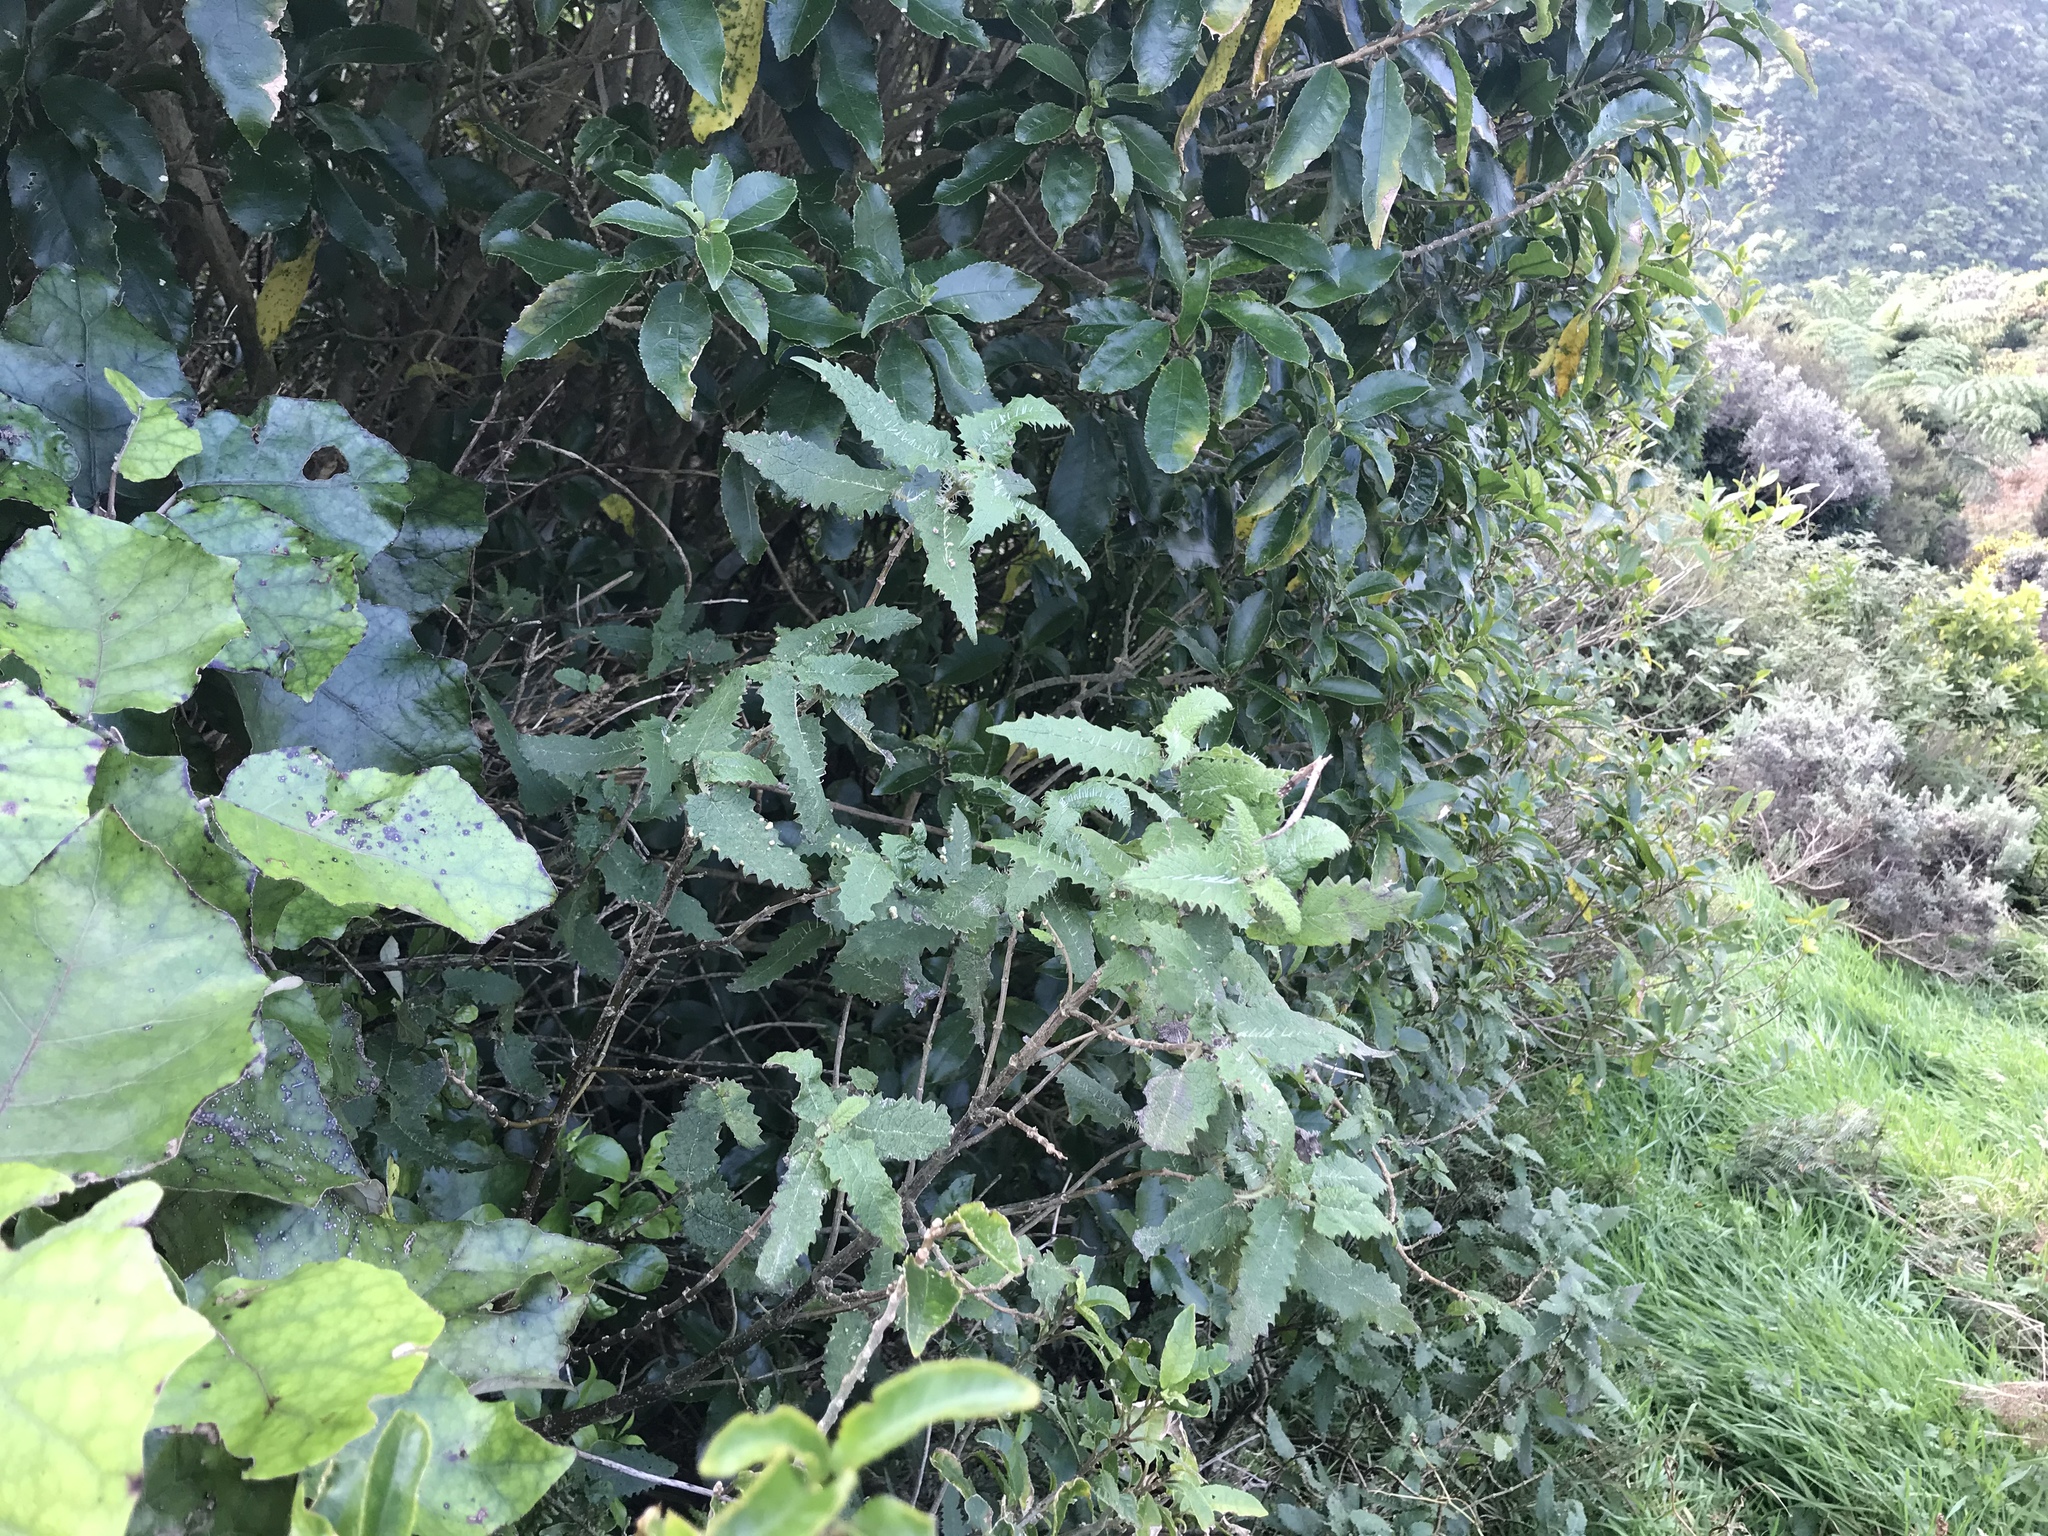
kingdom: Plantae
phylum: Tracheophyta
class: Magnoliopsida
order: Rosales
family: Urticaceae
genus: Urtica
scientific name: Urtica ferox
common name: Tree nettle
